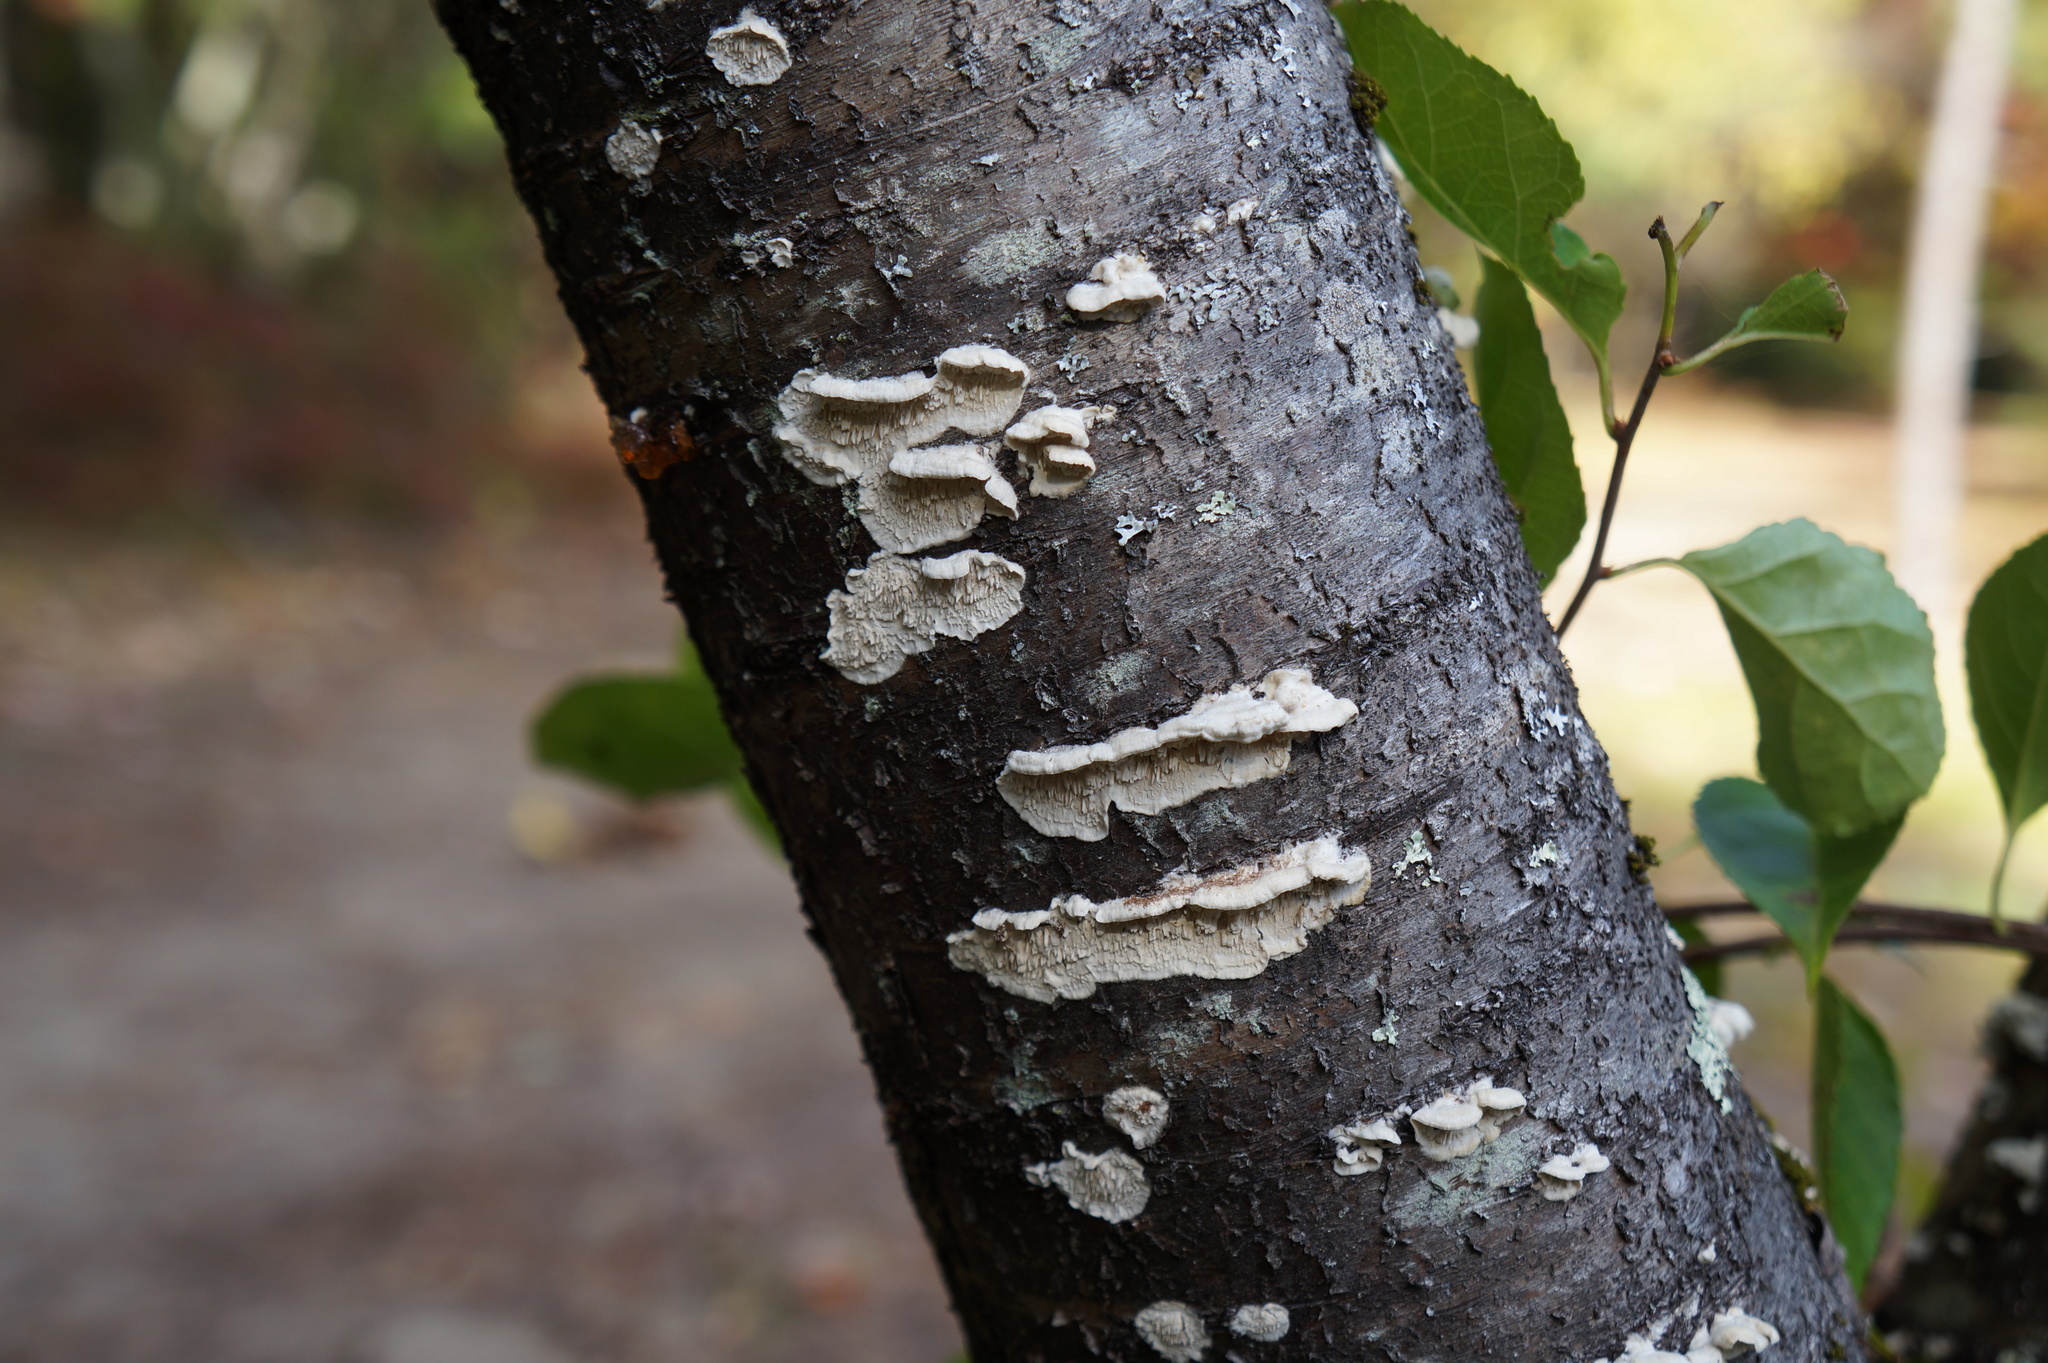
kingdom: Fungi
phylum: Basidiomycota
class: Agaricomycetes
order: Polyporales
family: Irpicaceae
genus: Irpex
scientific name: Irpex lacteus
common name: Milk-white toothed polypore
